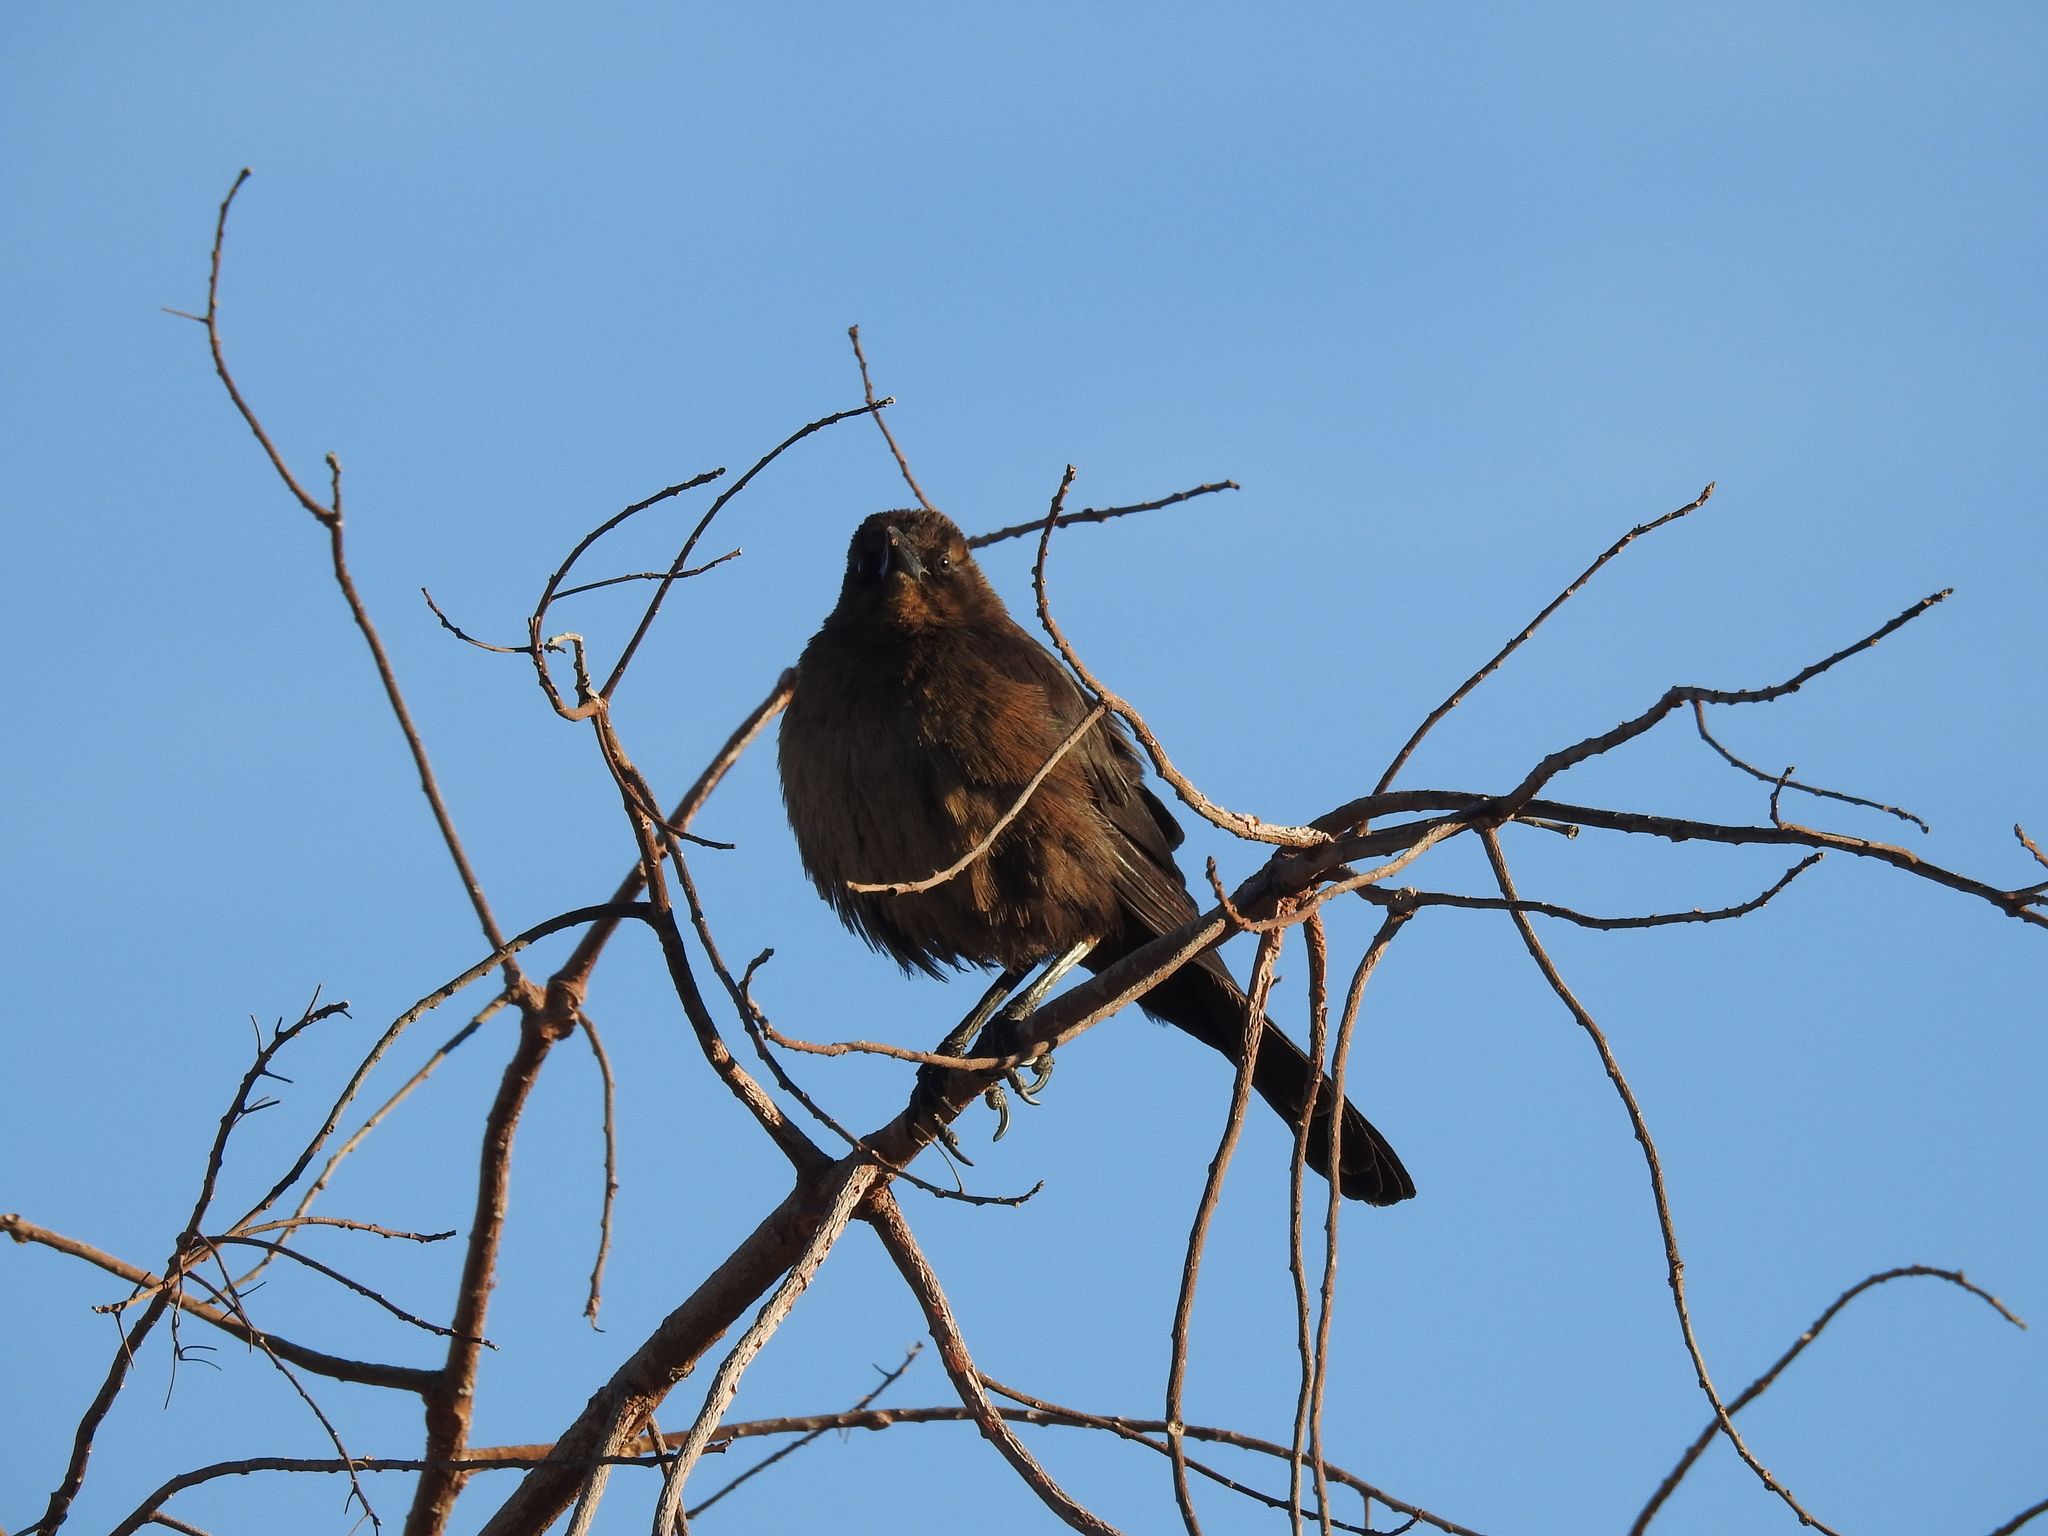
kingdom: Animalia
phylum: Chordata
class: Aves
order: Passeriformes
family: Icteridae
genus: Quiscalus
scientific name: Quiscalus mexicanus
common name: Great-tailed grackle
